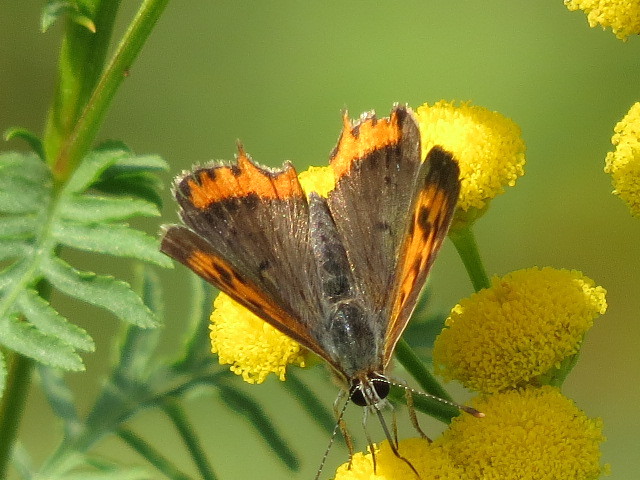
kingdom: Animalia
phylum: Arthropoda
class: Insecta
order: Lepidoptera
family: Lycaenidae
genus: Lycaena
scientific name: Lycaena phlaeas
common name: Small copper
